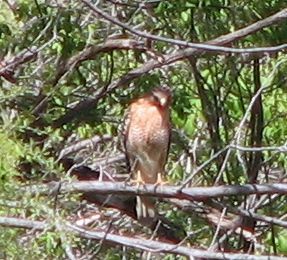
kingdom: Animalia
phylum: Chordata
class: Aves
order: Accipitriformes
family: Accipitridae
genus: Buteo
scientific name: Buteo lineatus
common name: Red-shouldered hawk
